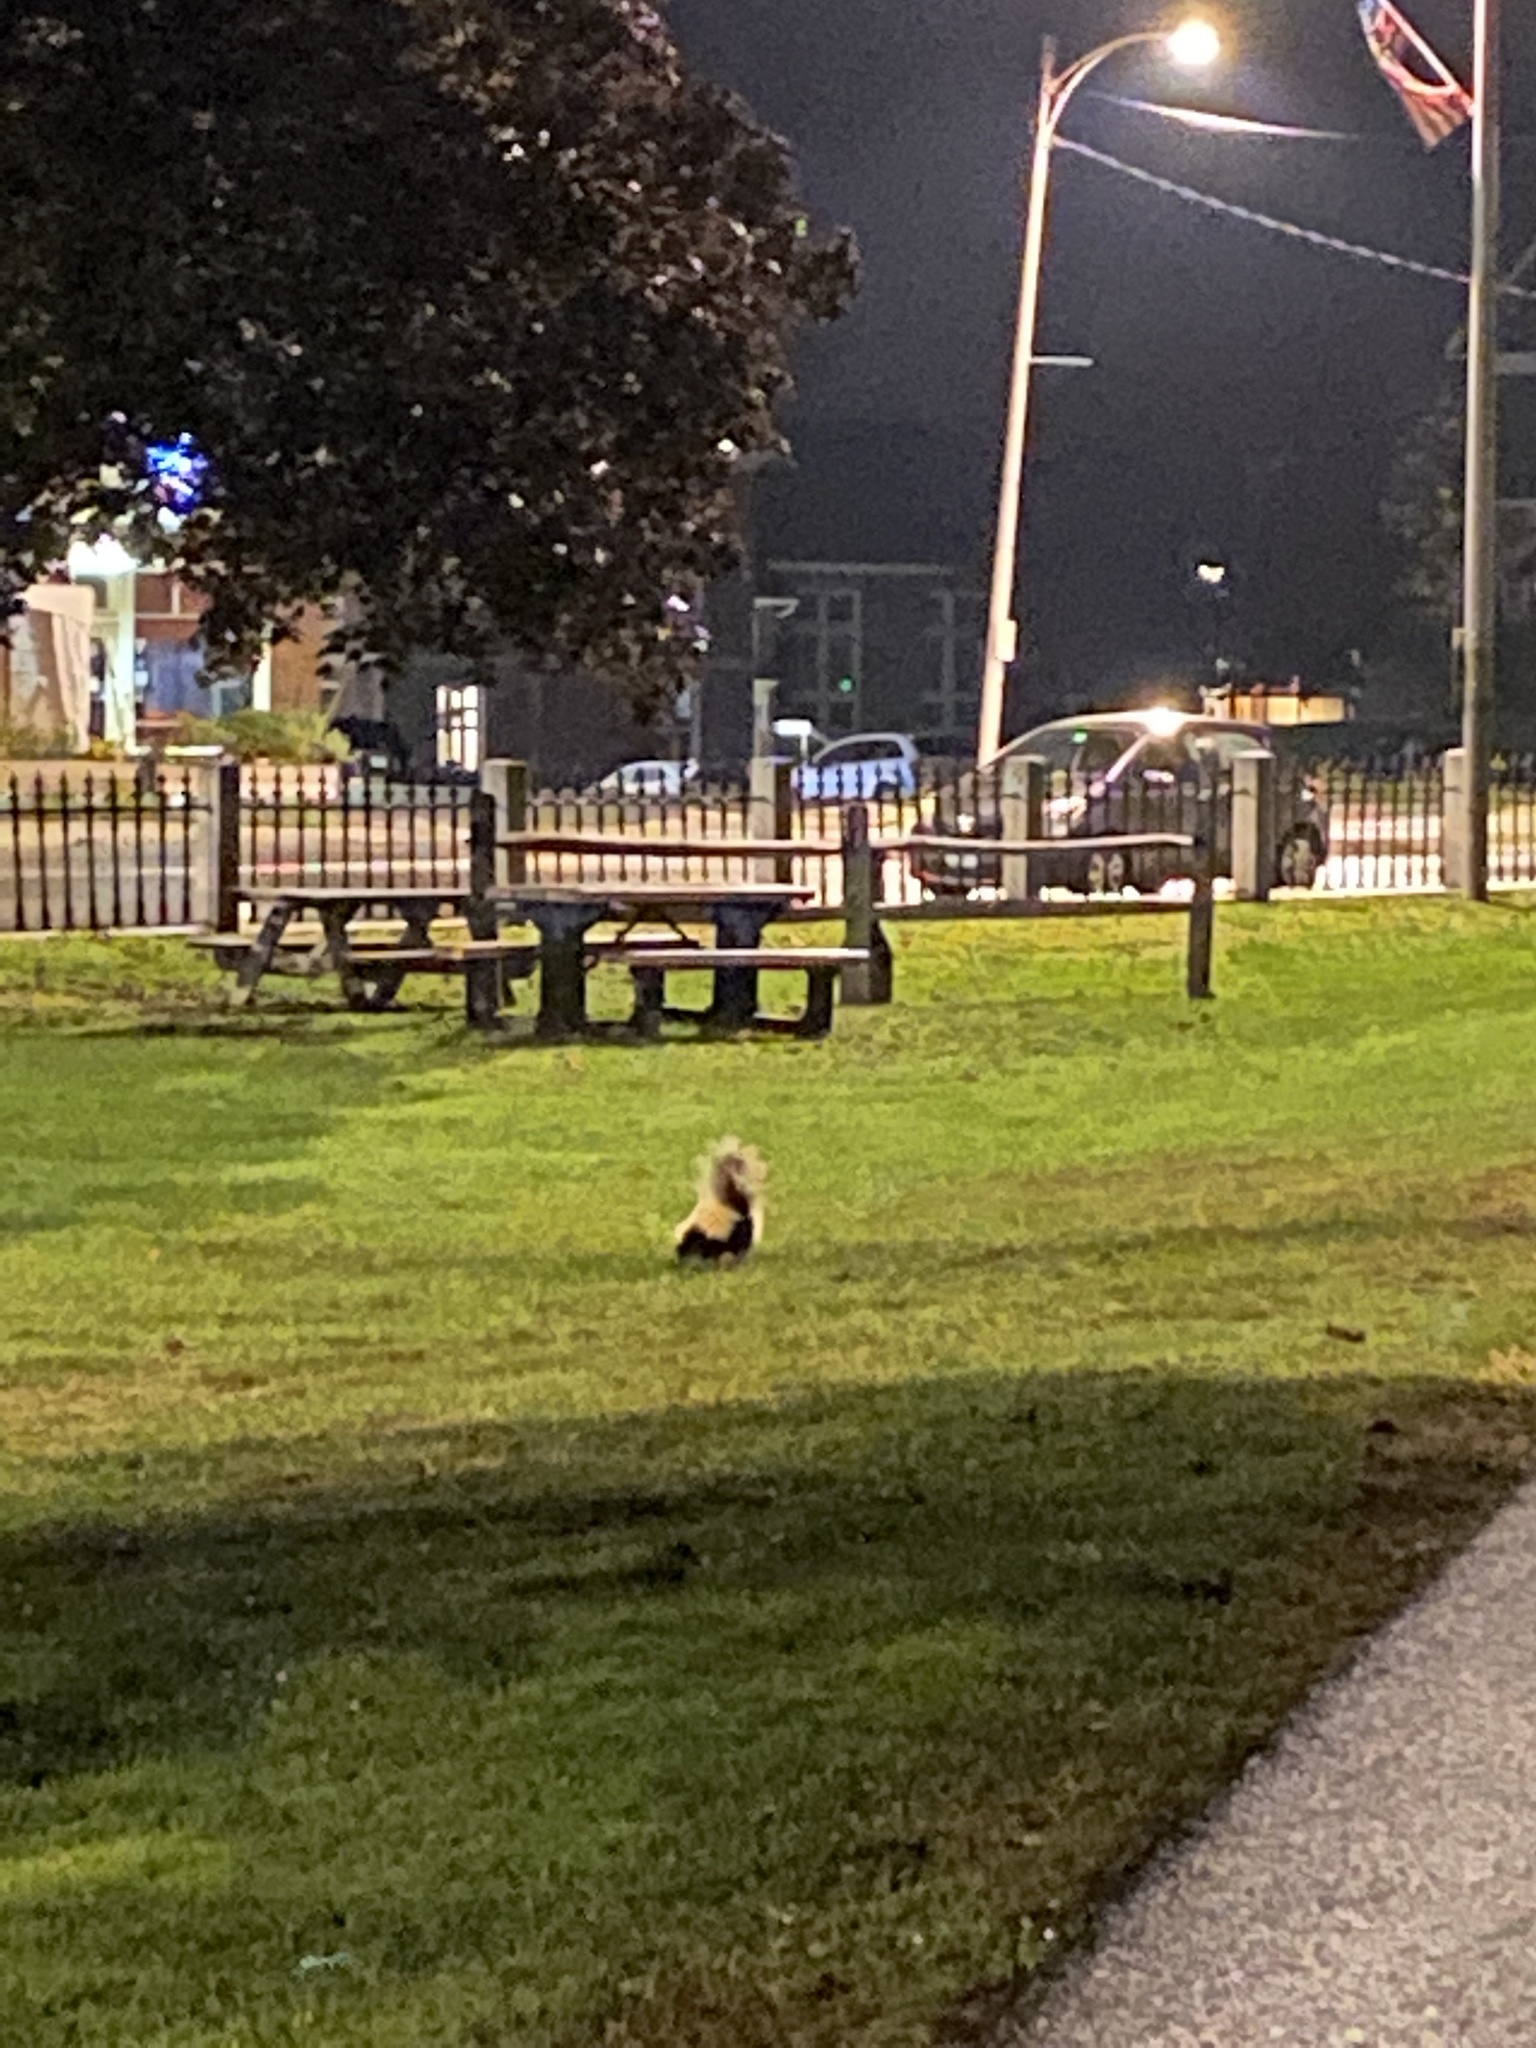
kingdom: Animalia
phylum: Chordata
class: Mammalia
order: Carnivora
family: Mephitidae
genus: Mephitis
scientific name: Mephitis mephitis
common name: Striped skunk
